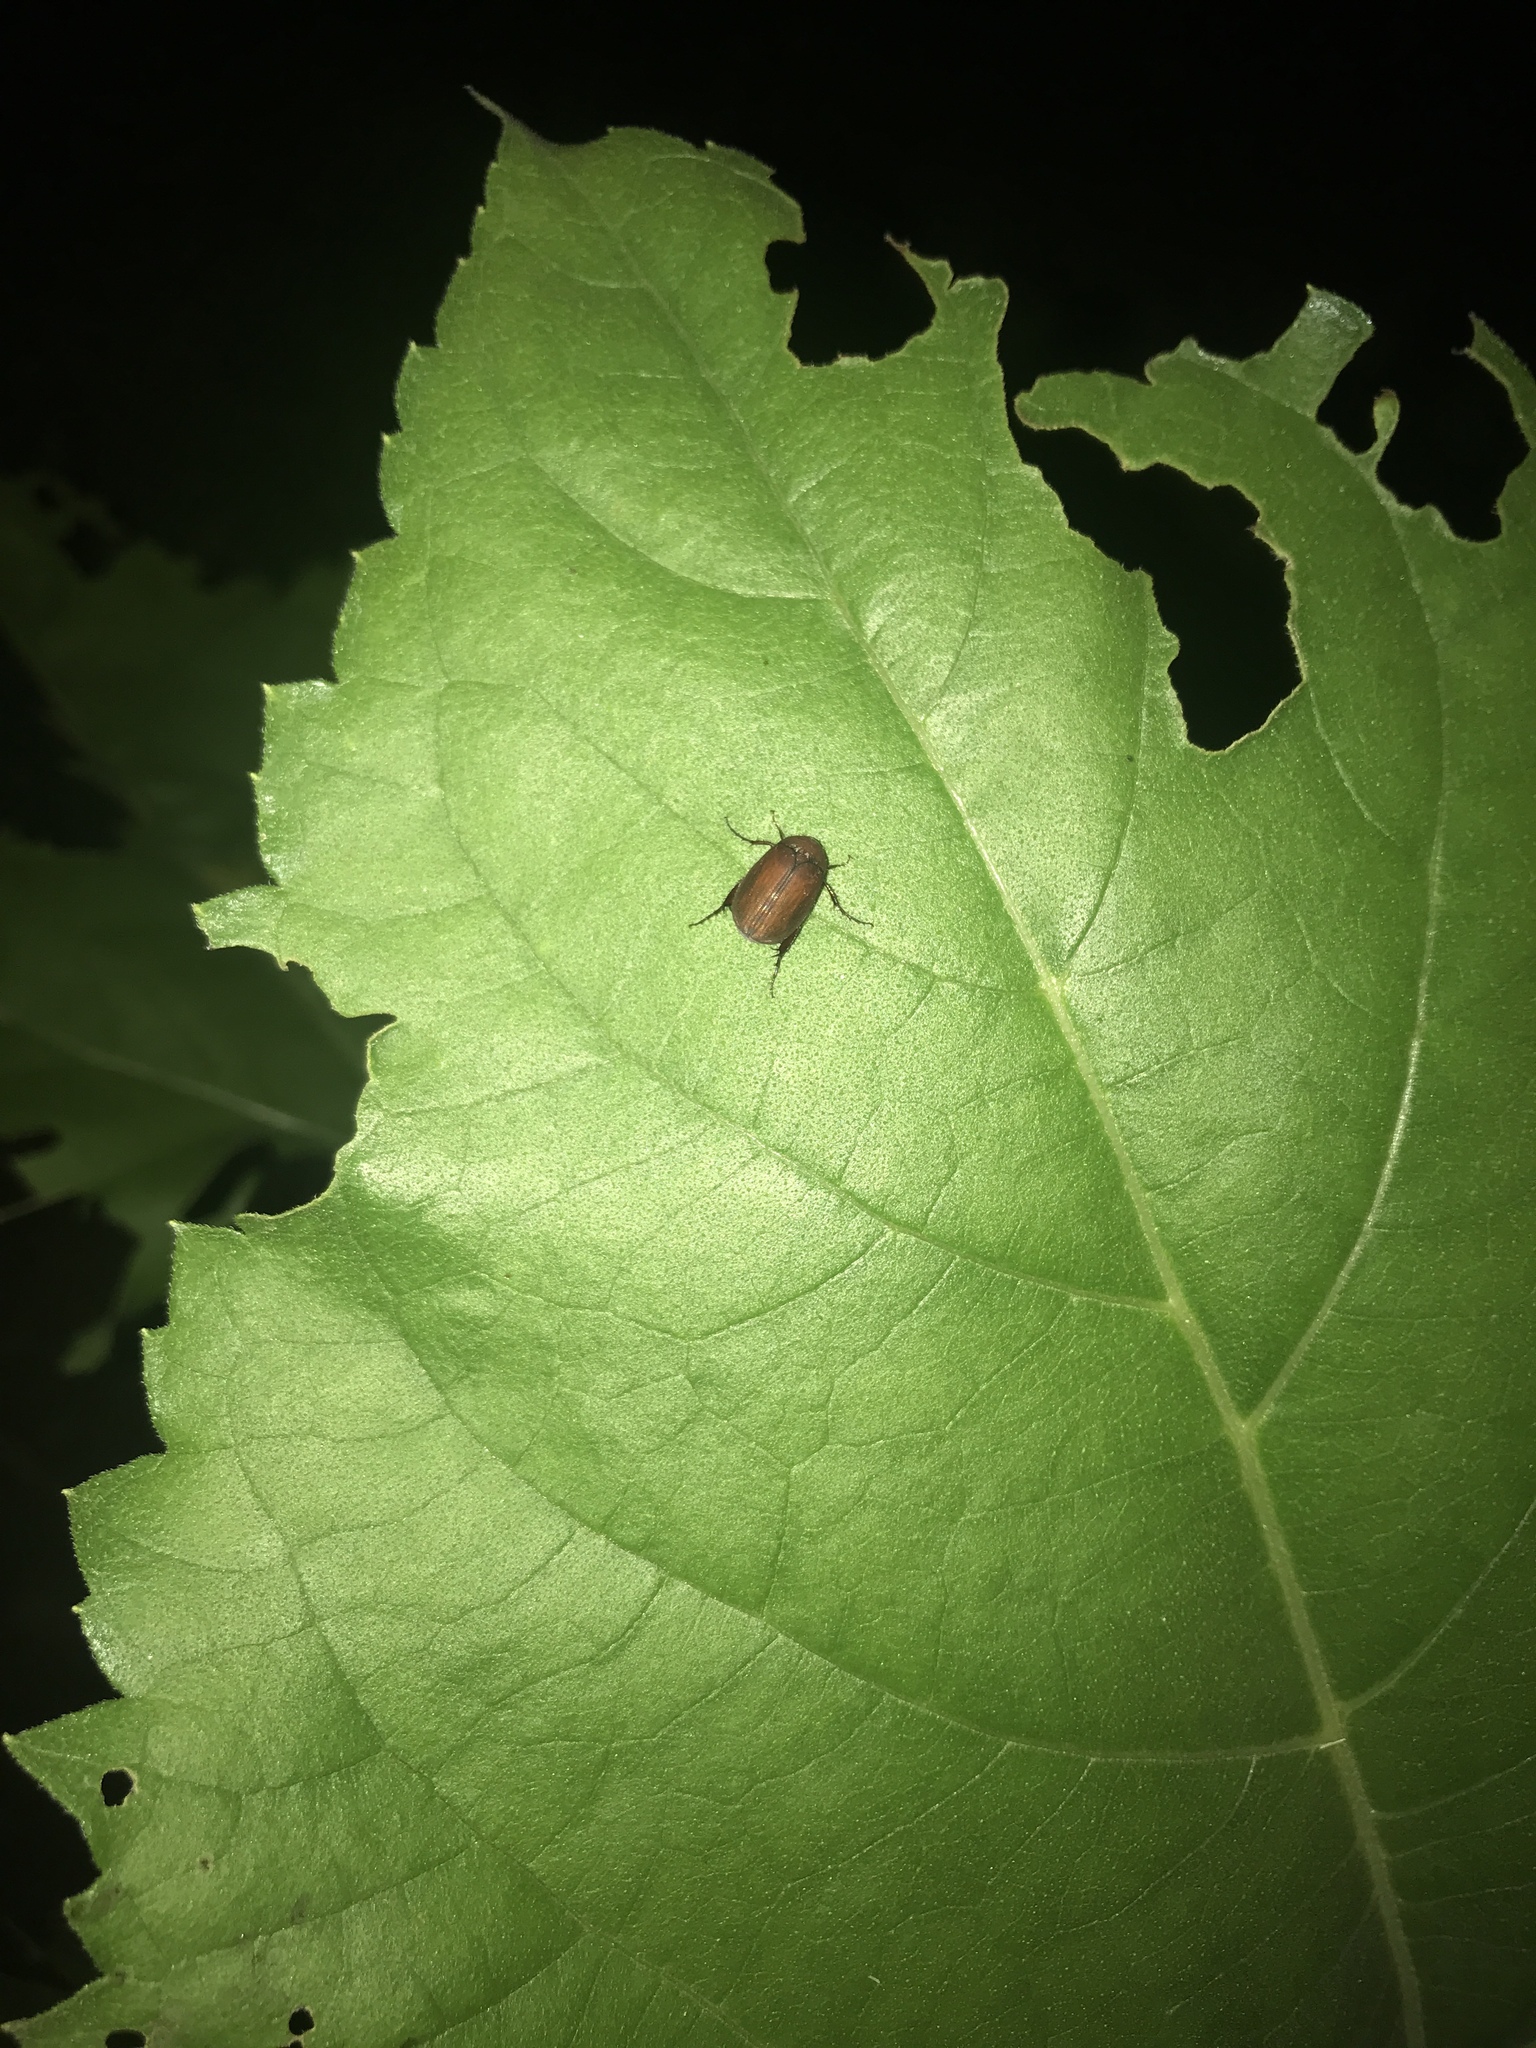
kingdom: Animalia
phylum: Arthropoda
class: Insecta
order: Coleoptera
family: Scarabaeidae
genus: Maladera
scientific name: Maladera formosae
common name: Asiatic garden beetle
